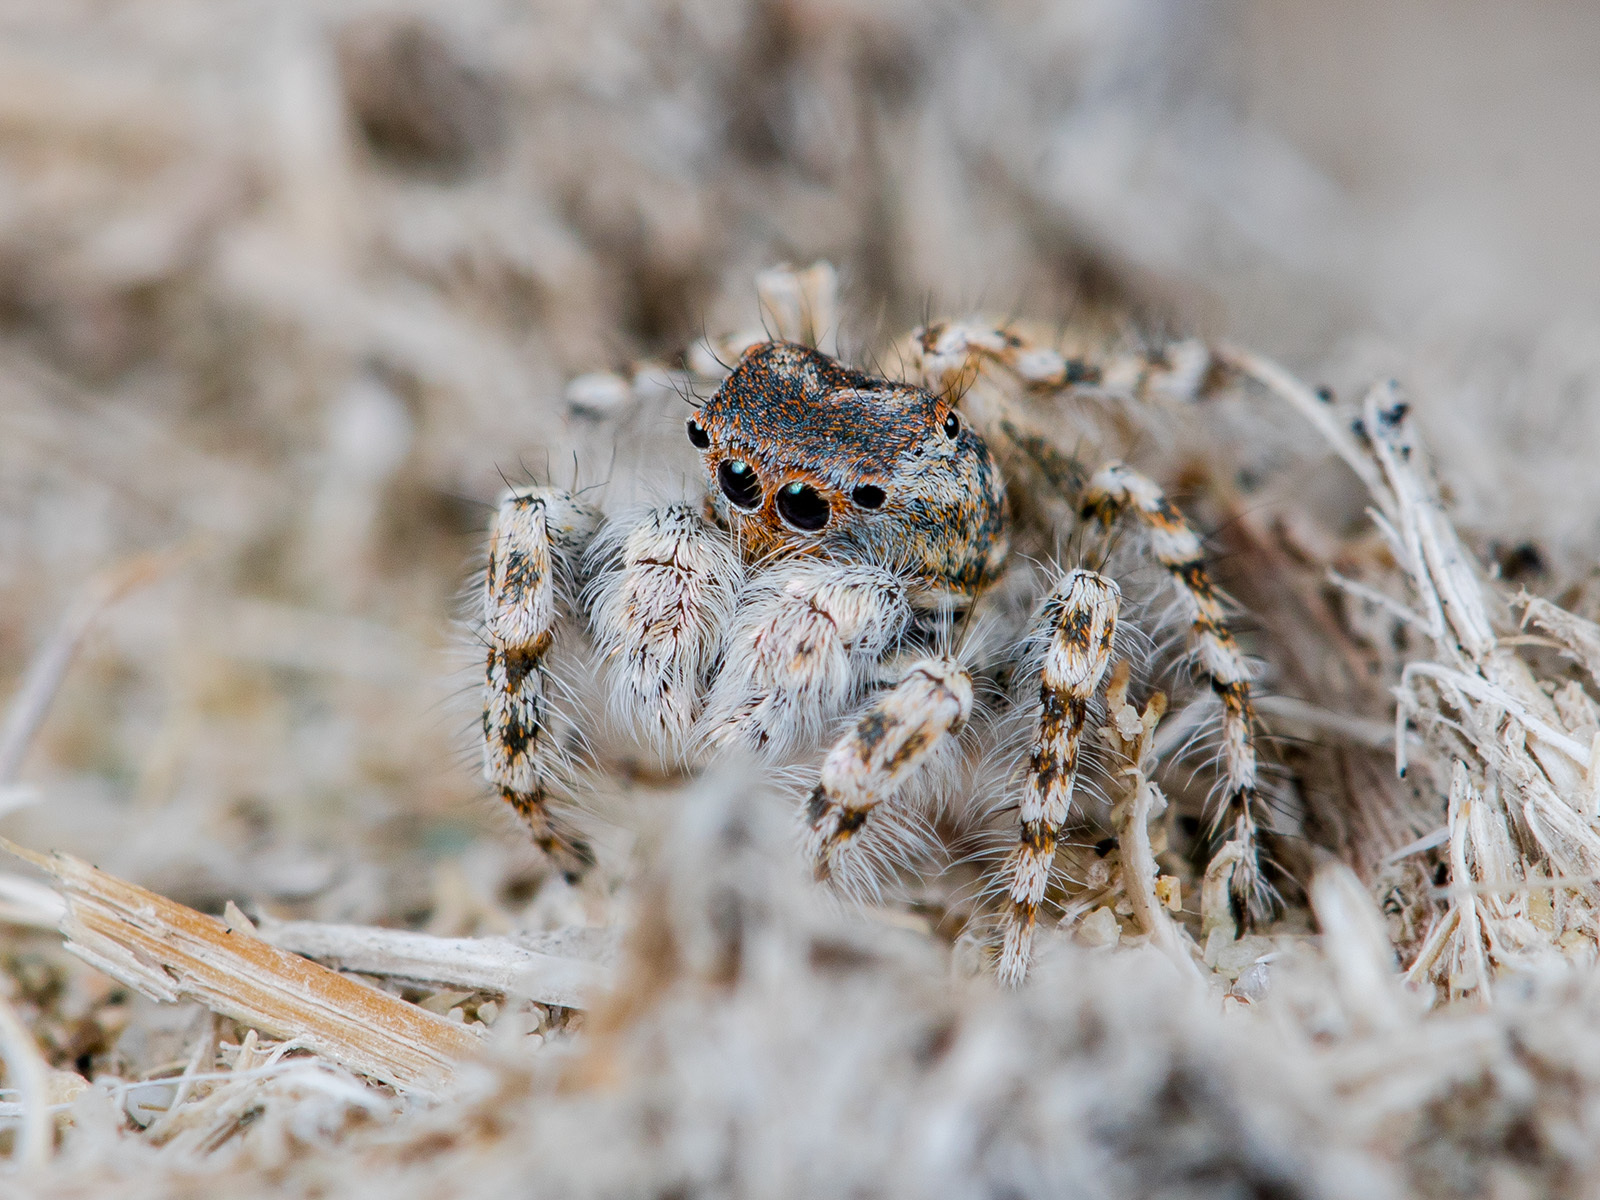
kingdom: Animalia
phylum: Arthropoda
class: Arachnida
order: Araneae
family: Salticidae
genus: Yllenus
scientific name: Yllenus uiguricus
